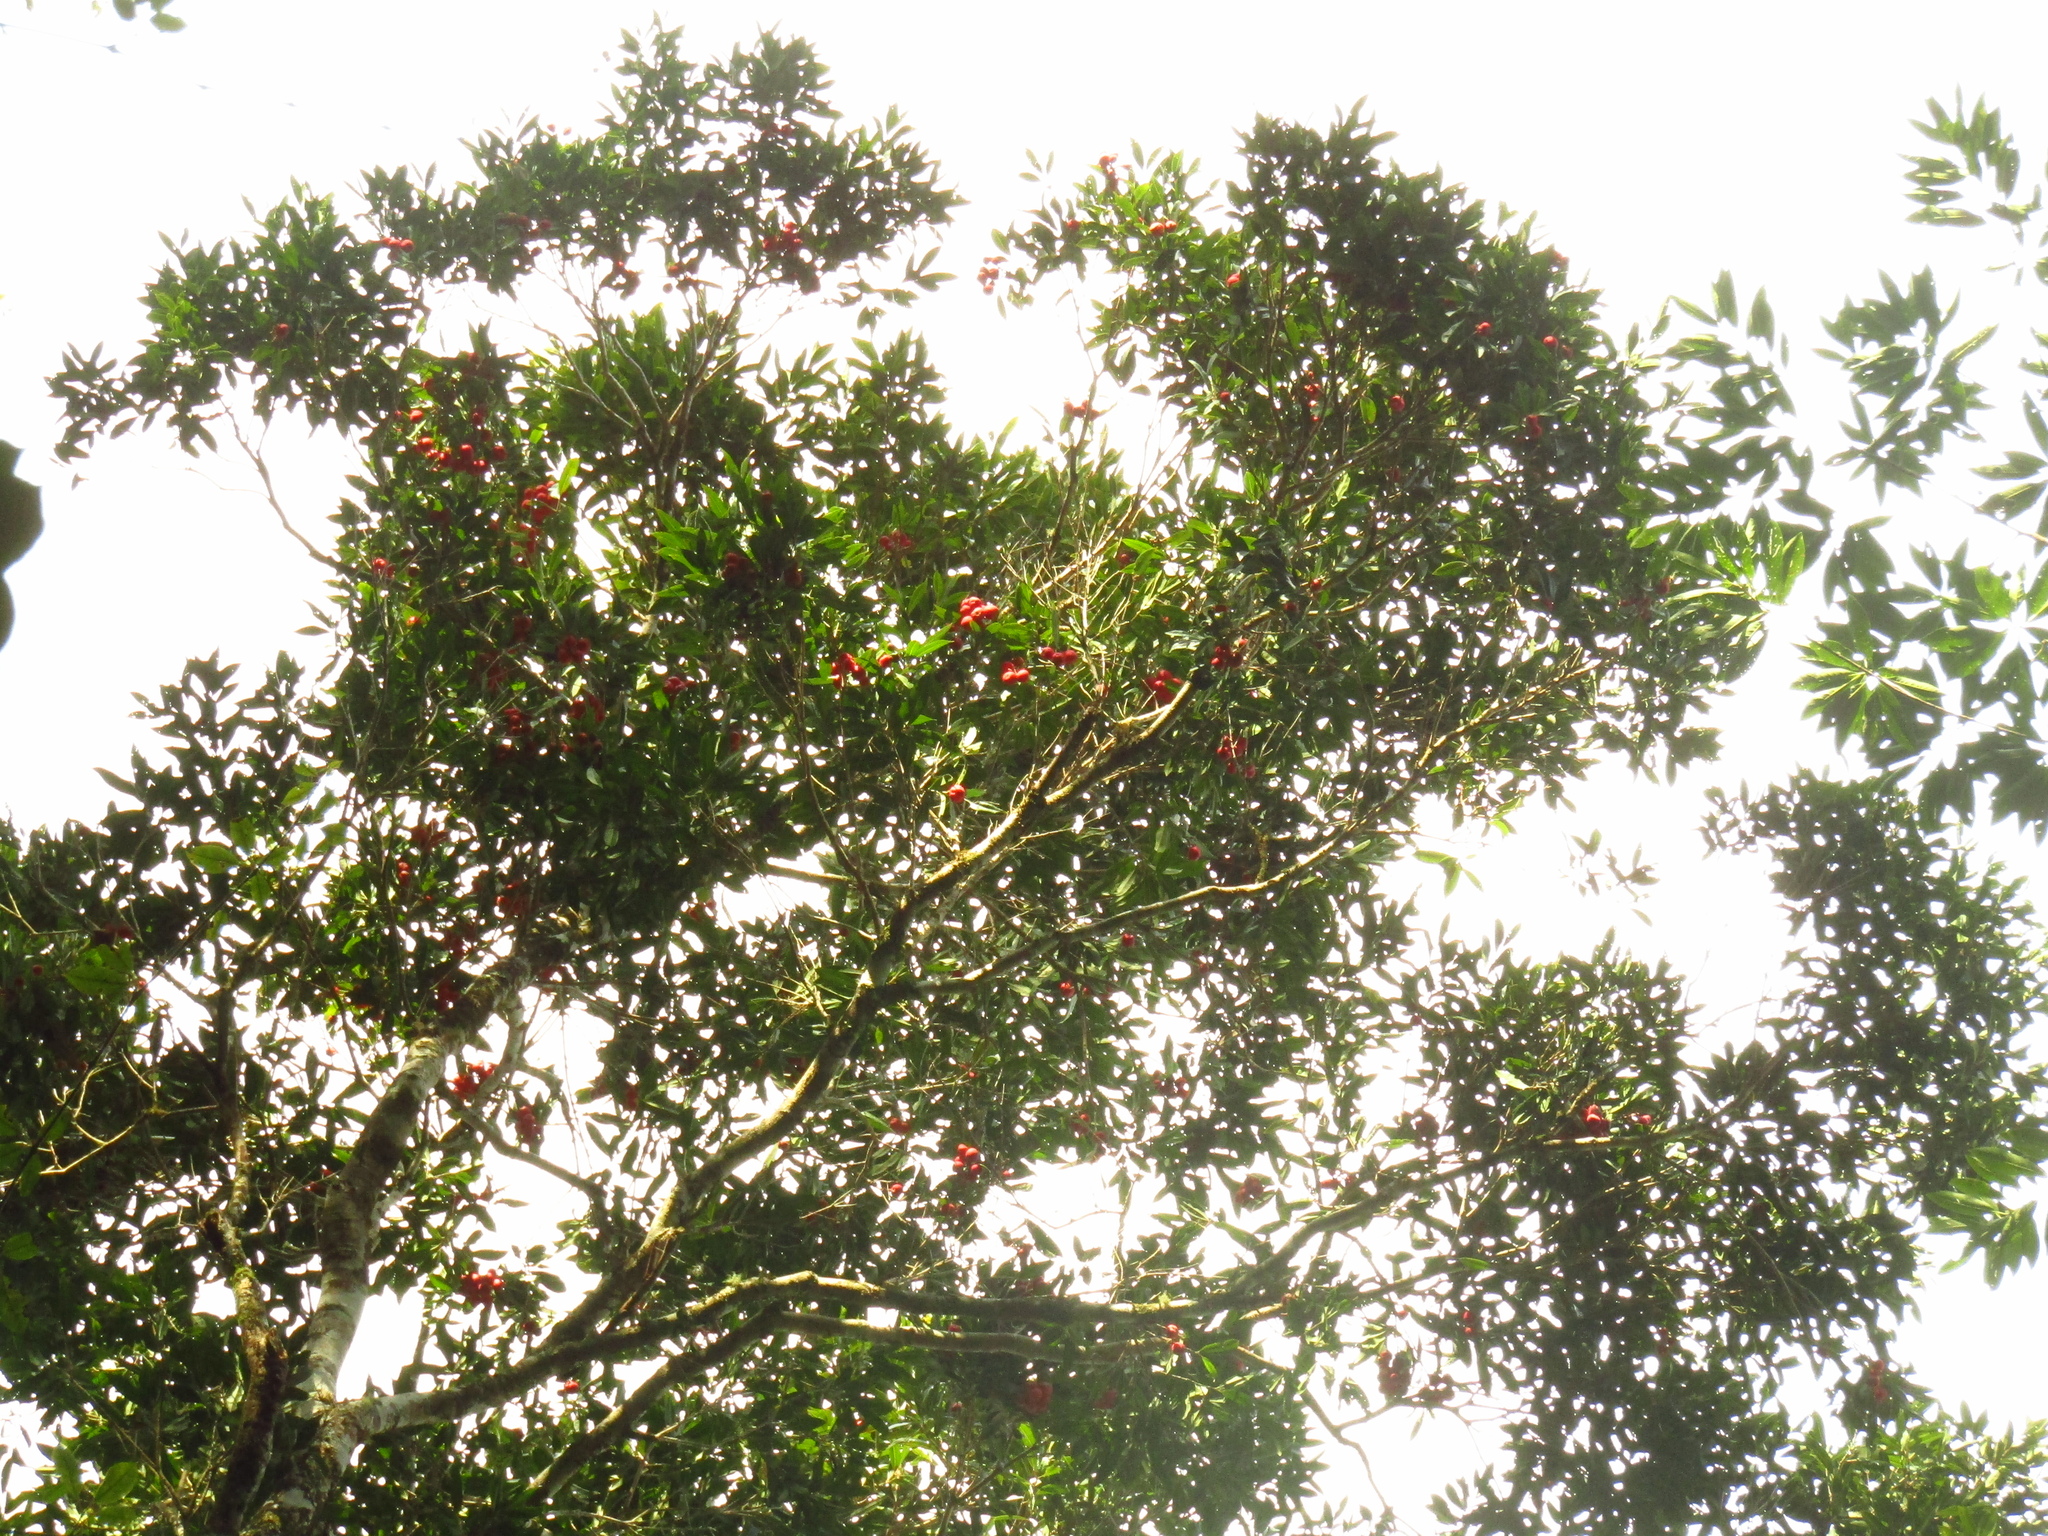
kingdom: Plantae
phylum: Tracheophyta
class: Magnoliopsida
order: Myrtales
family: Myrtaceae
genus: Syzygium
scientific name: Syzygium ingens
